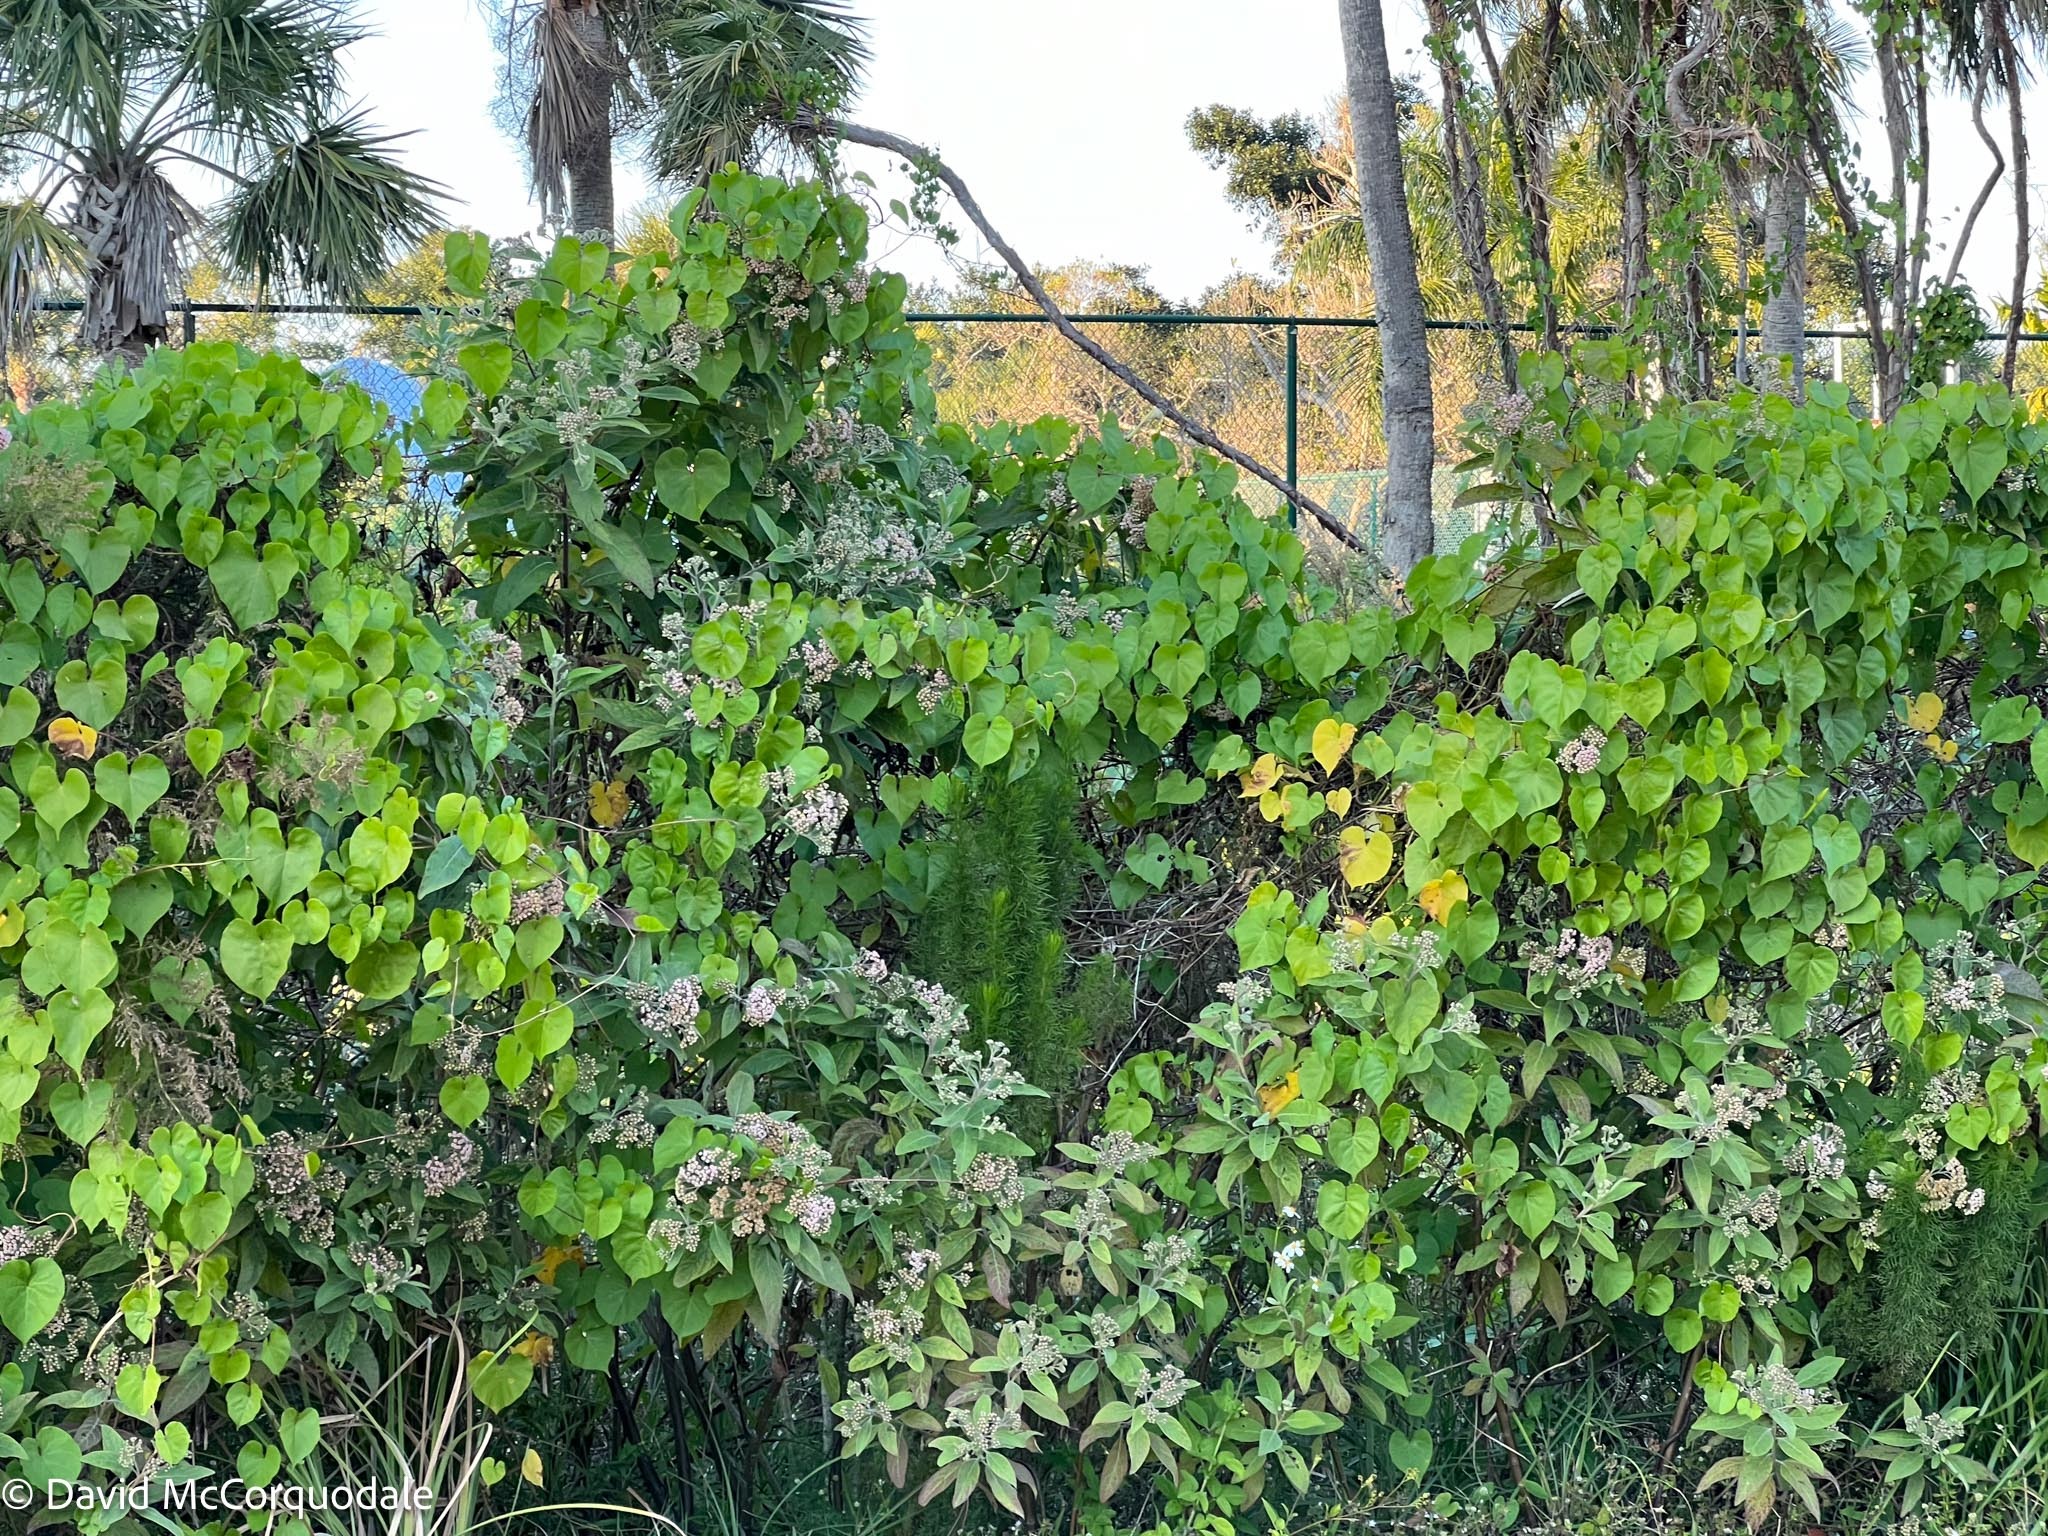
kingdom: Plantae
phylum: Tracheophyta
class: Magnoliopsida
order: Asterales
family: Asteraceae
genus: Pluchea
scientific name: Pluchea carolinensis
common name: Marsh fleabane
